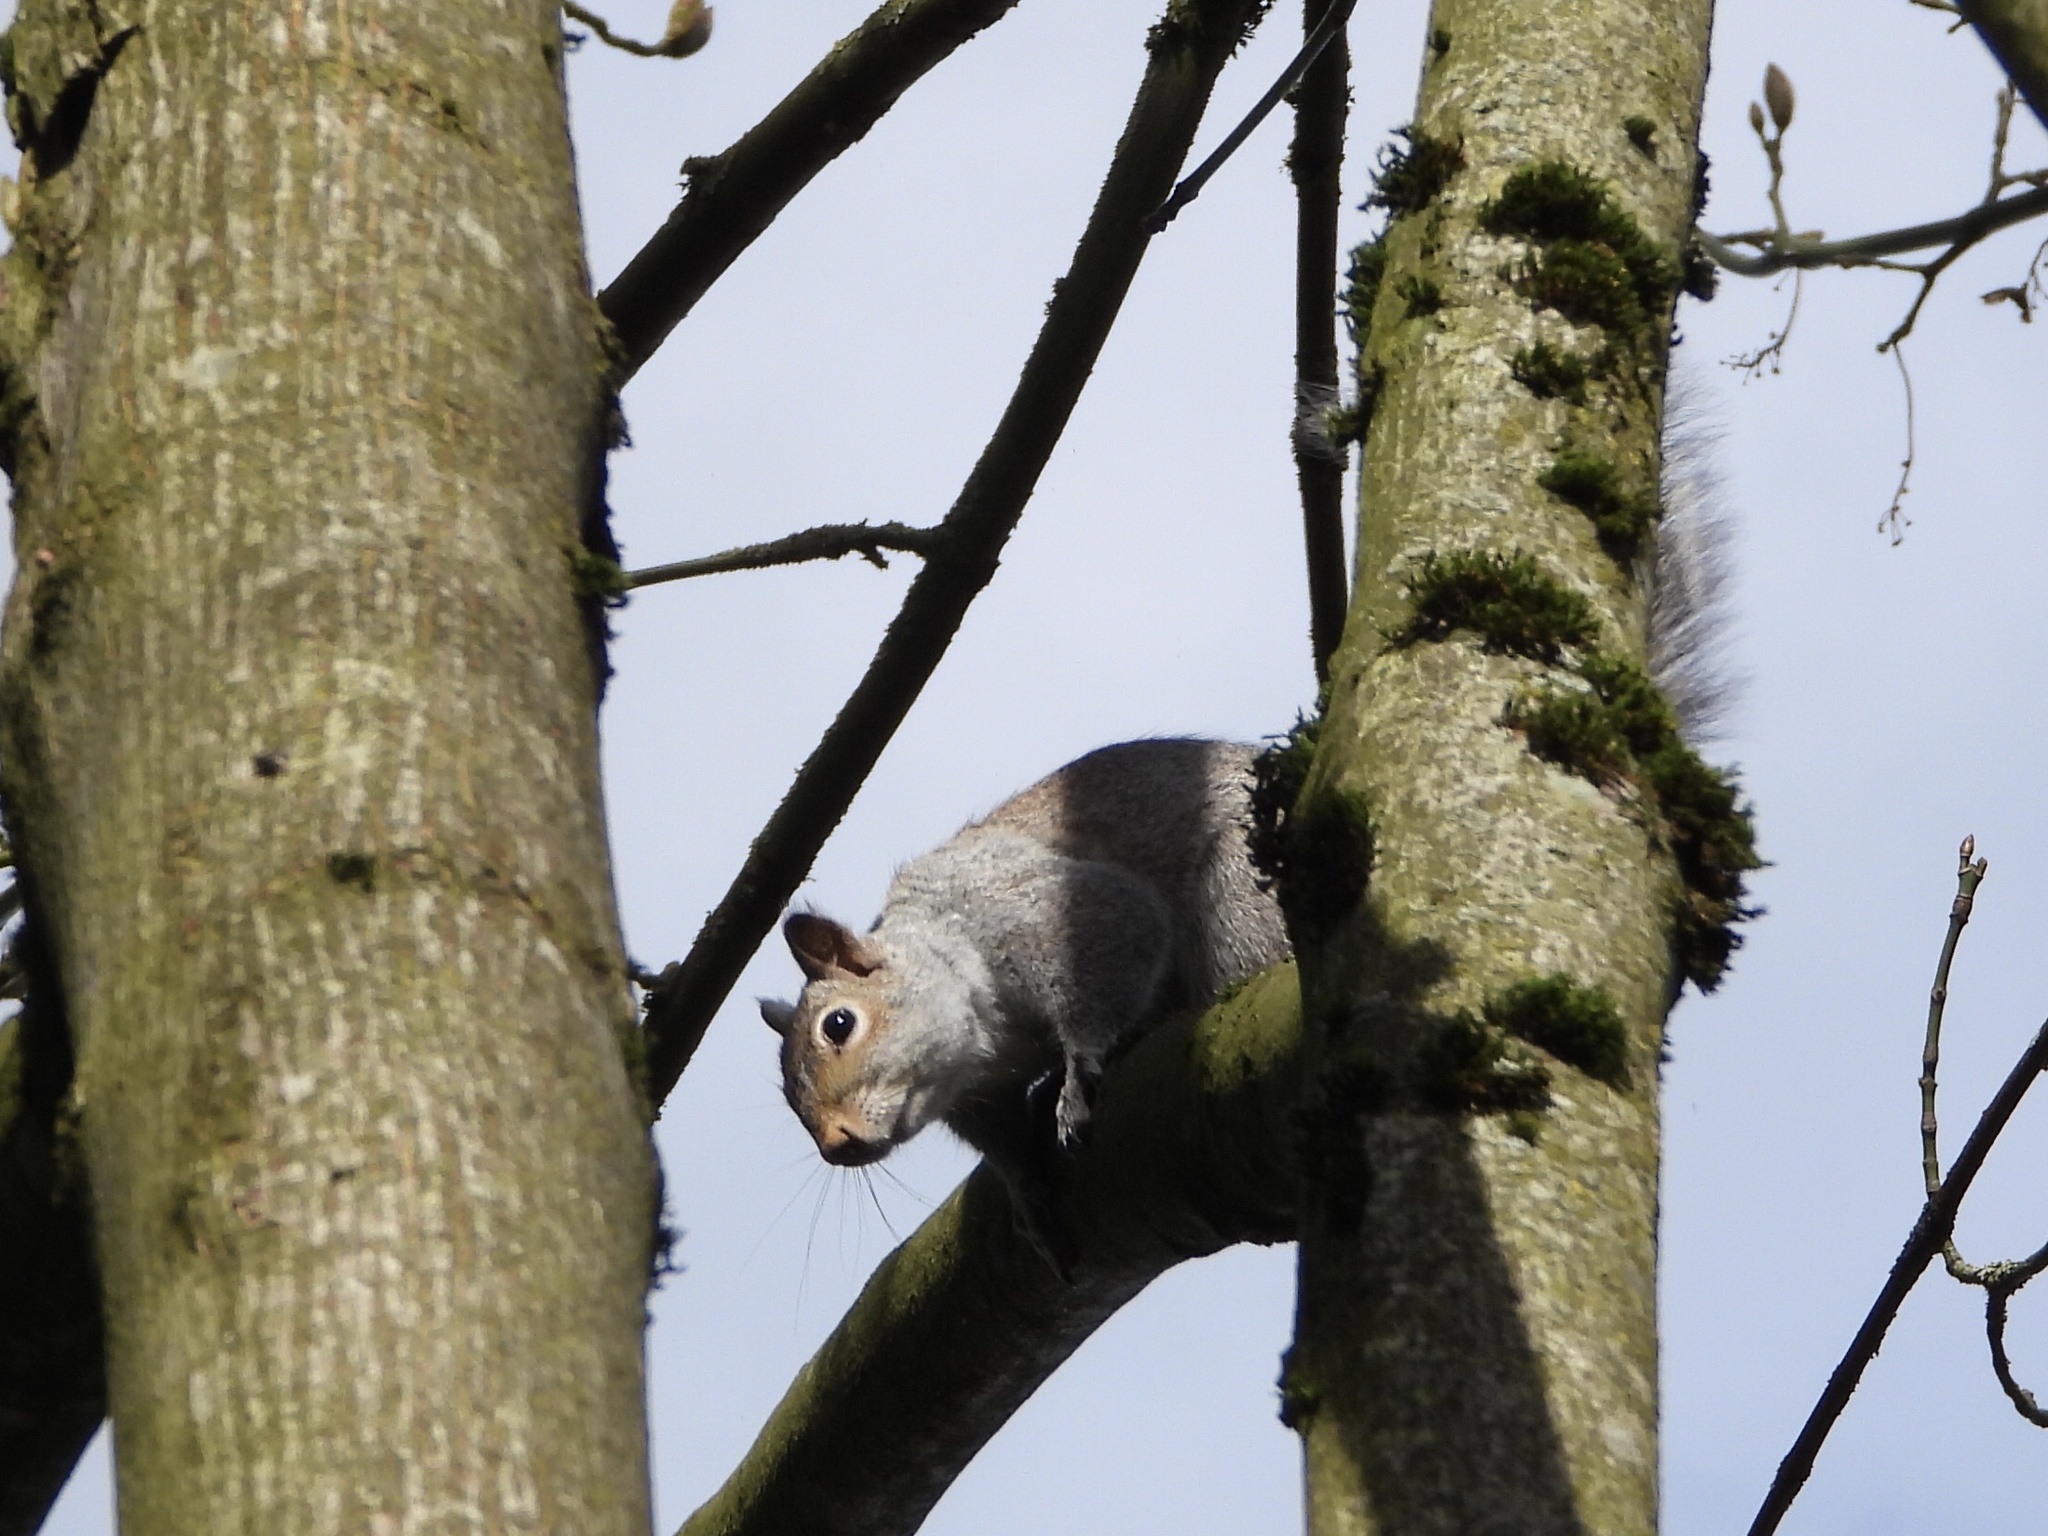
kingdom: Animalia
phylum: Chordata
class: Mammalia
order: Rodentia
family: Sciuridae
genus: Sciurus
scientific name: Sciurus carolinensis
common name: Eastern gray squirrel
